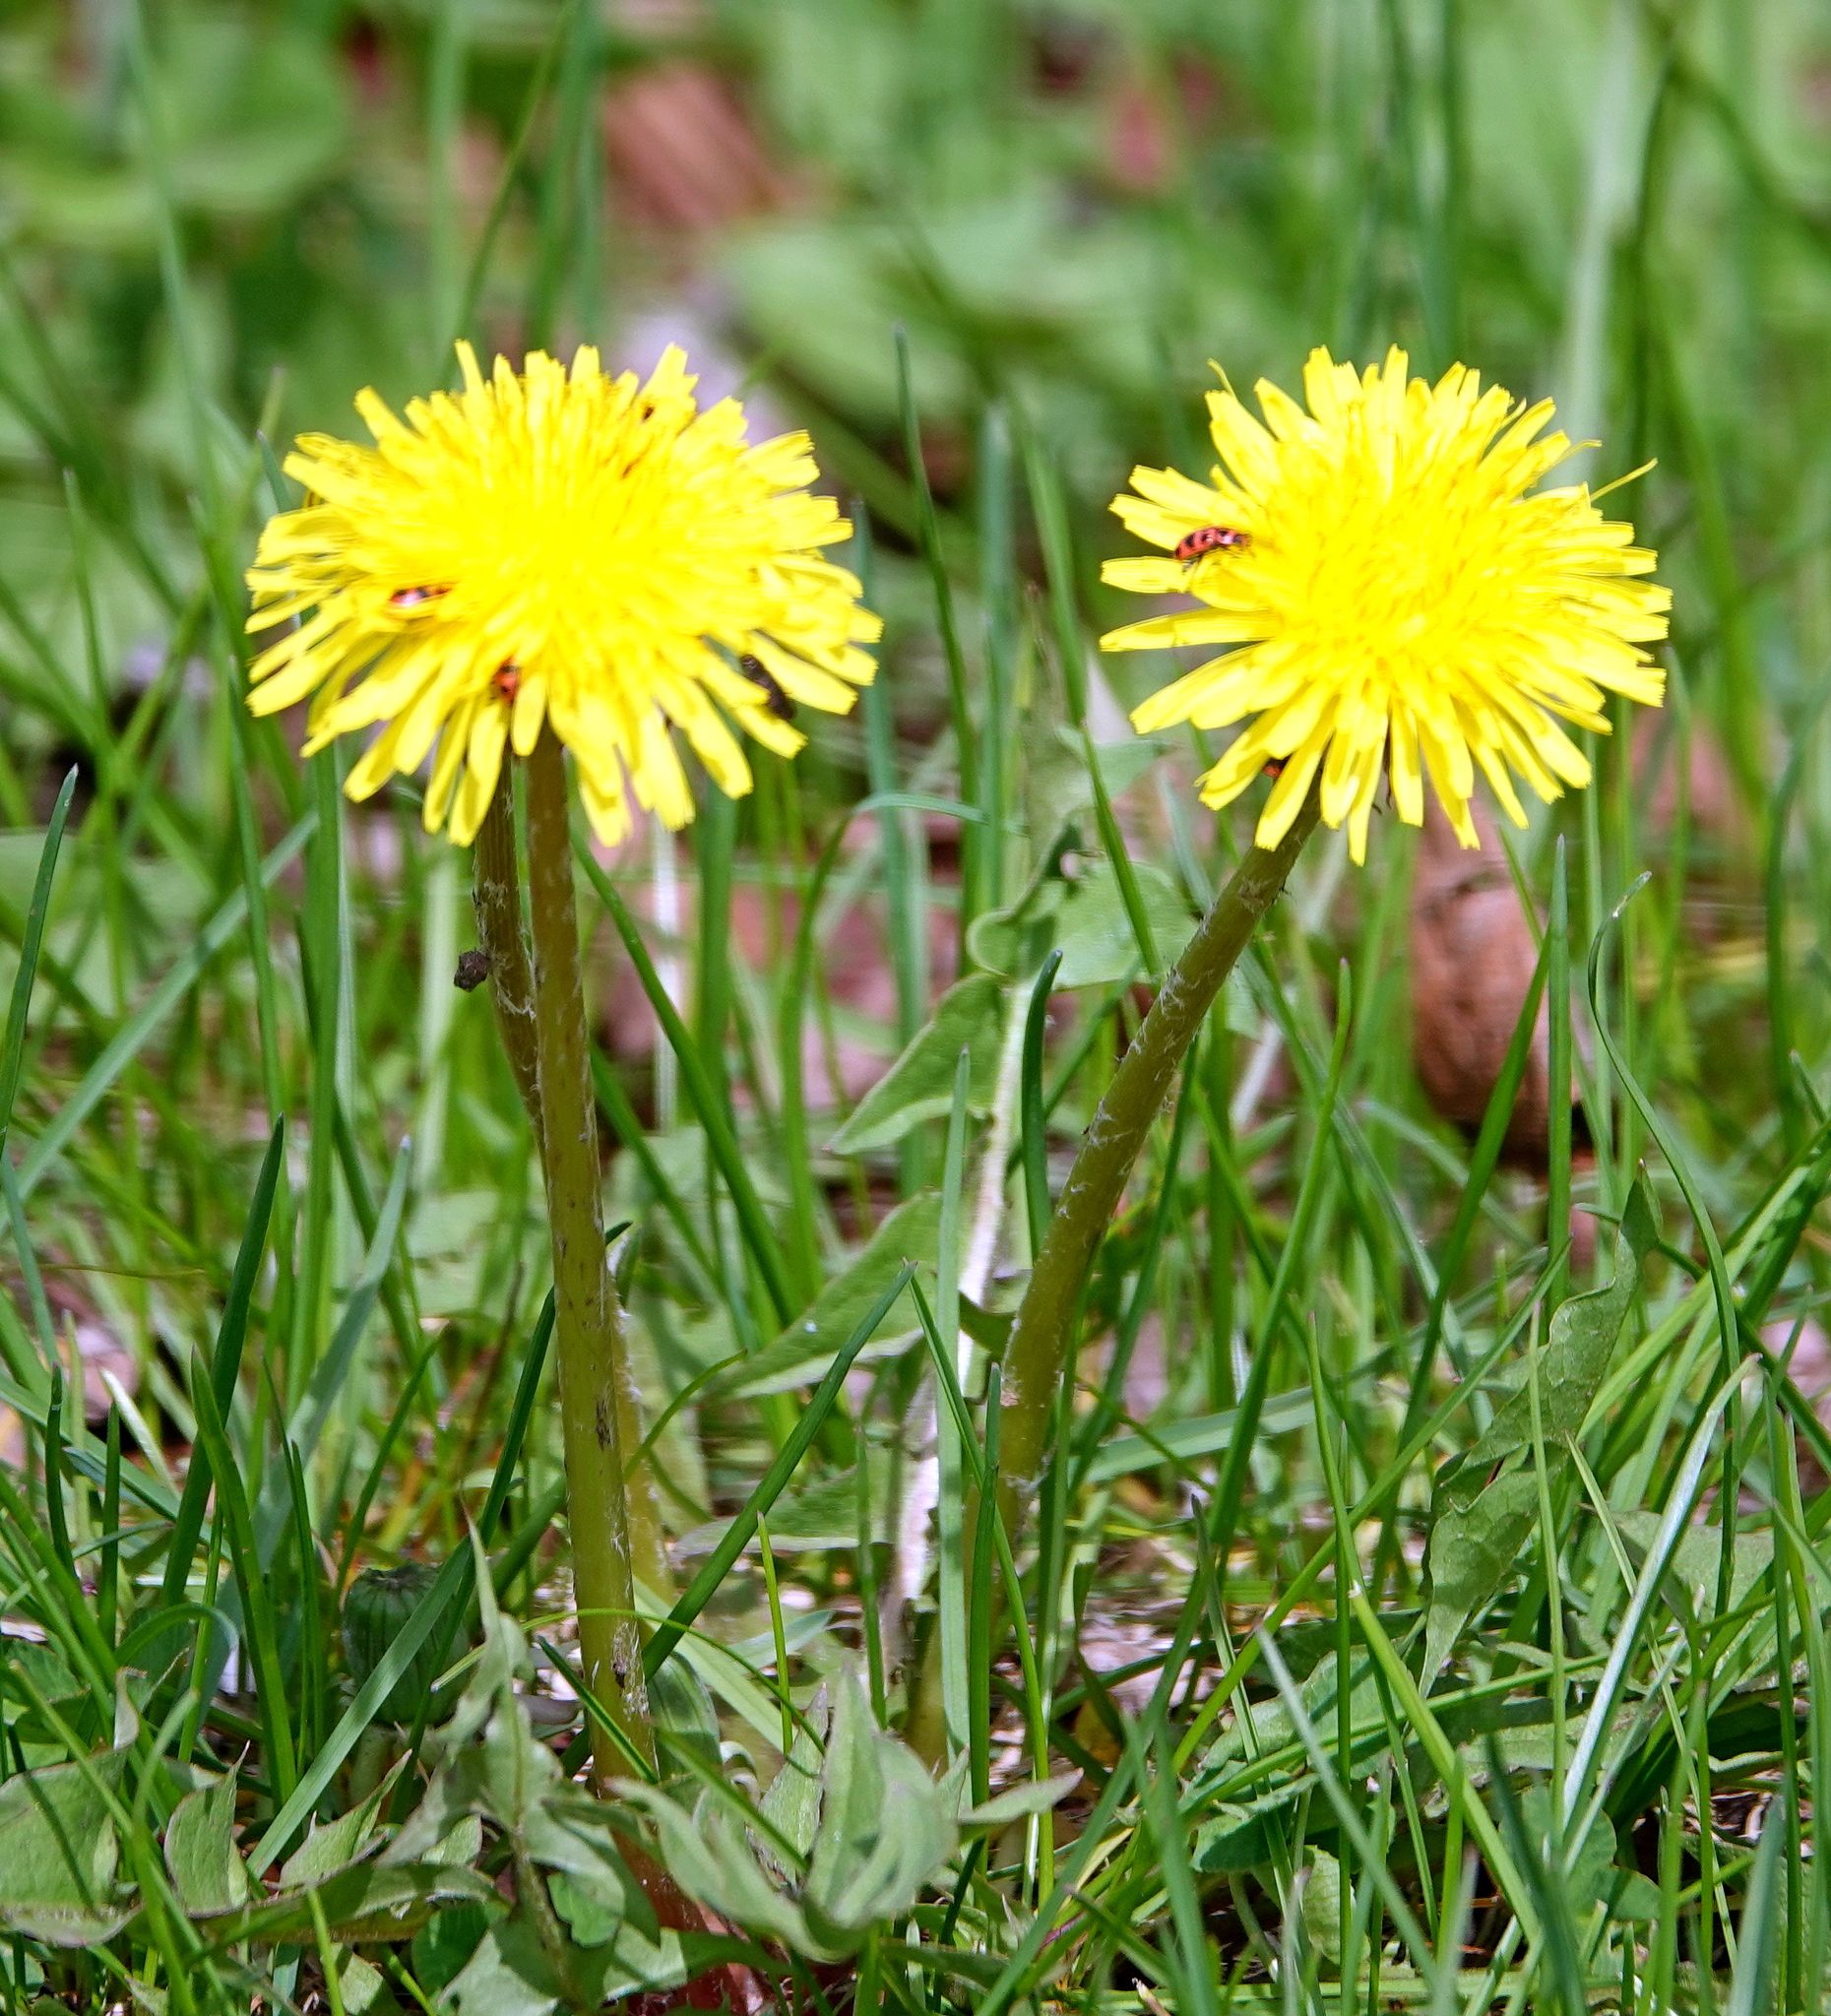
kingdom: Plantae
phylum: Tracheophyta
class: Magnoliopsida
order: Asterales
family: Asteraceae
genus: Taraxacum
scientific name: Taraxacum officinale
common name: Common dandelion
